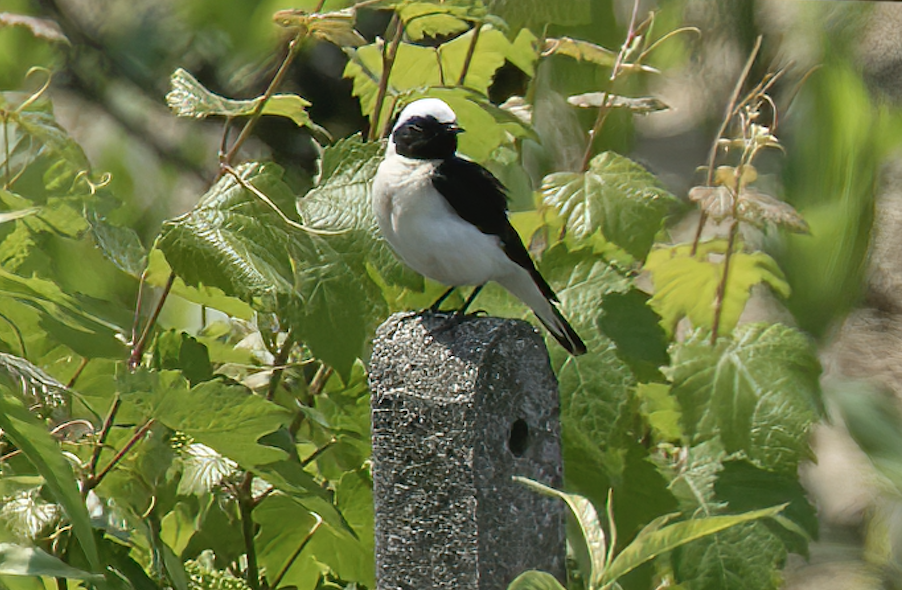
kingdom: Animalia
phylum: Chordata
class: Aves
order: Passeriformes
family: Muscicapidae
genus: Oenanthe
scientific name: Oenanthe hispanica
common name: Black-eared wheatear
